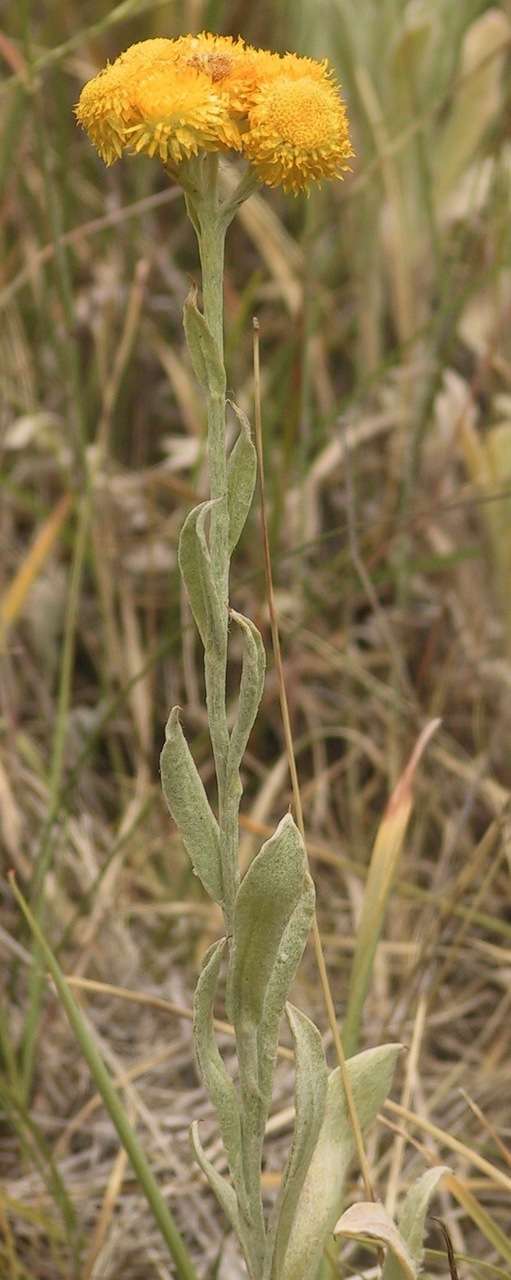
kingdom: Plantae
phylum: Tracheophyta
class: Magnoliopsida
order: Asterales
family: Asteraceae
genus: Chrysocephalum
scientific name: Chrysocephalum apiculatum
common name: Common everlasting
